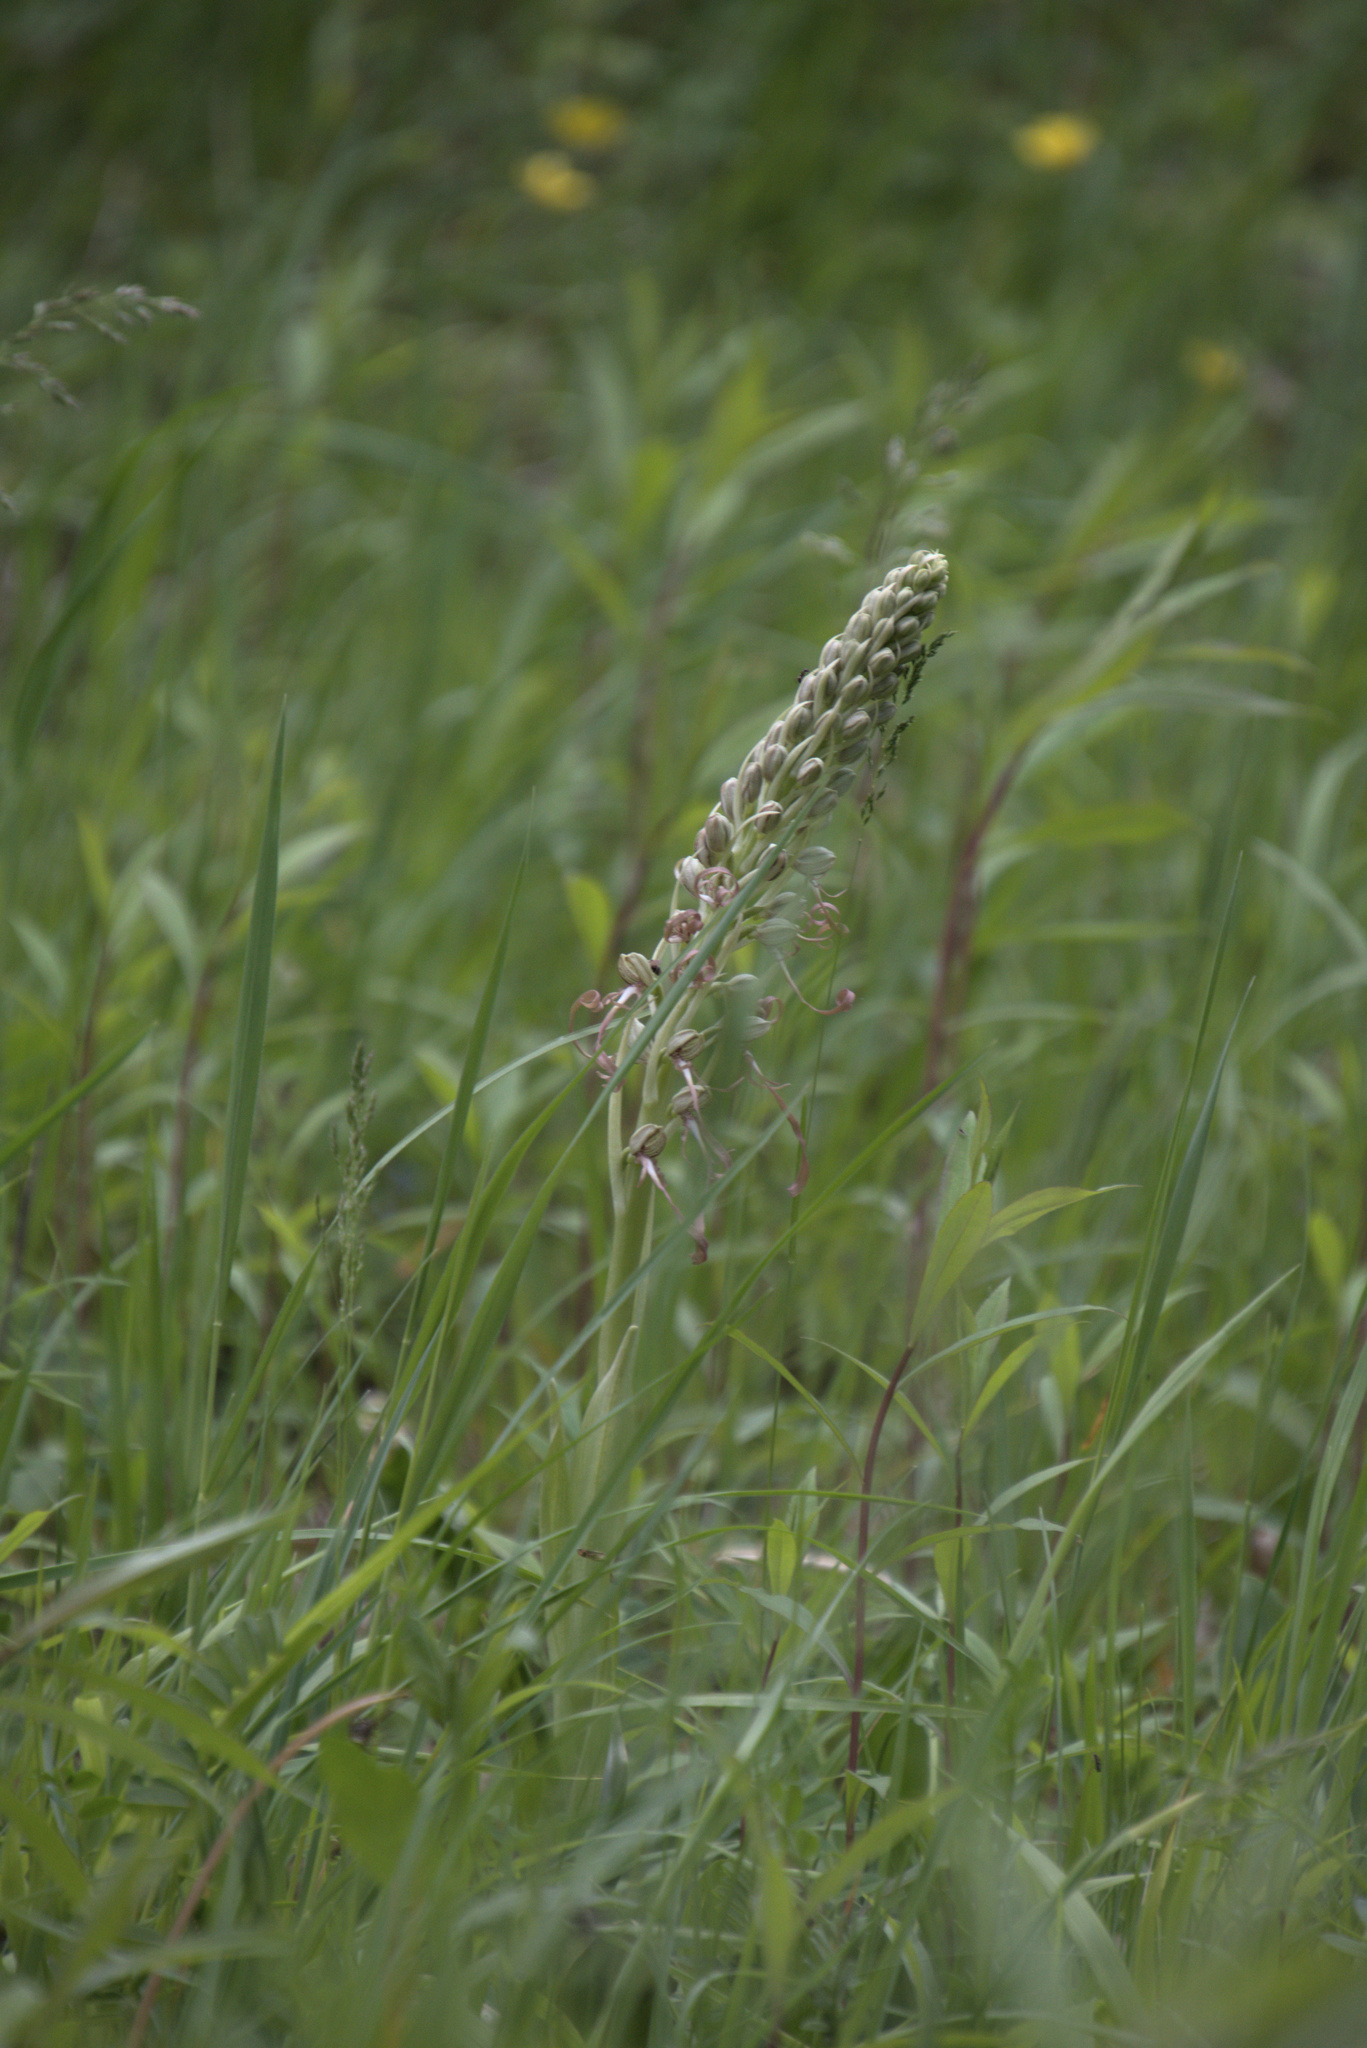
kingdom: Plantae
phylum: Tracheophyta
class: Liliopsida
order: Asparagales
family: Orchidaceae
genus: Himantoglossum
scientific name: Himantoglossum hircinum
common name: Lizard orchid
